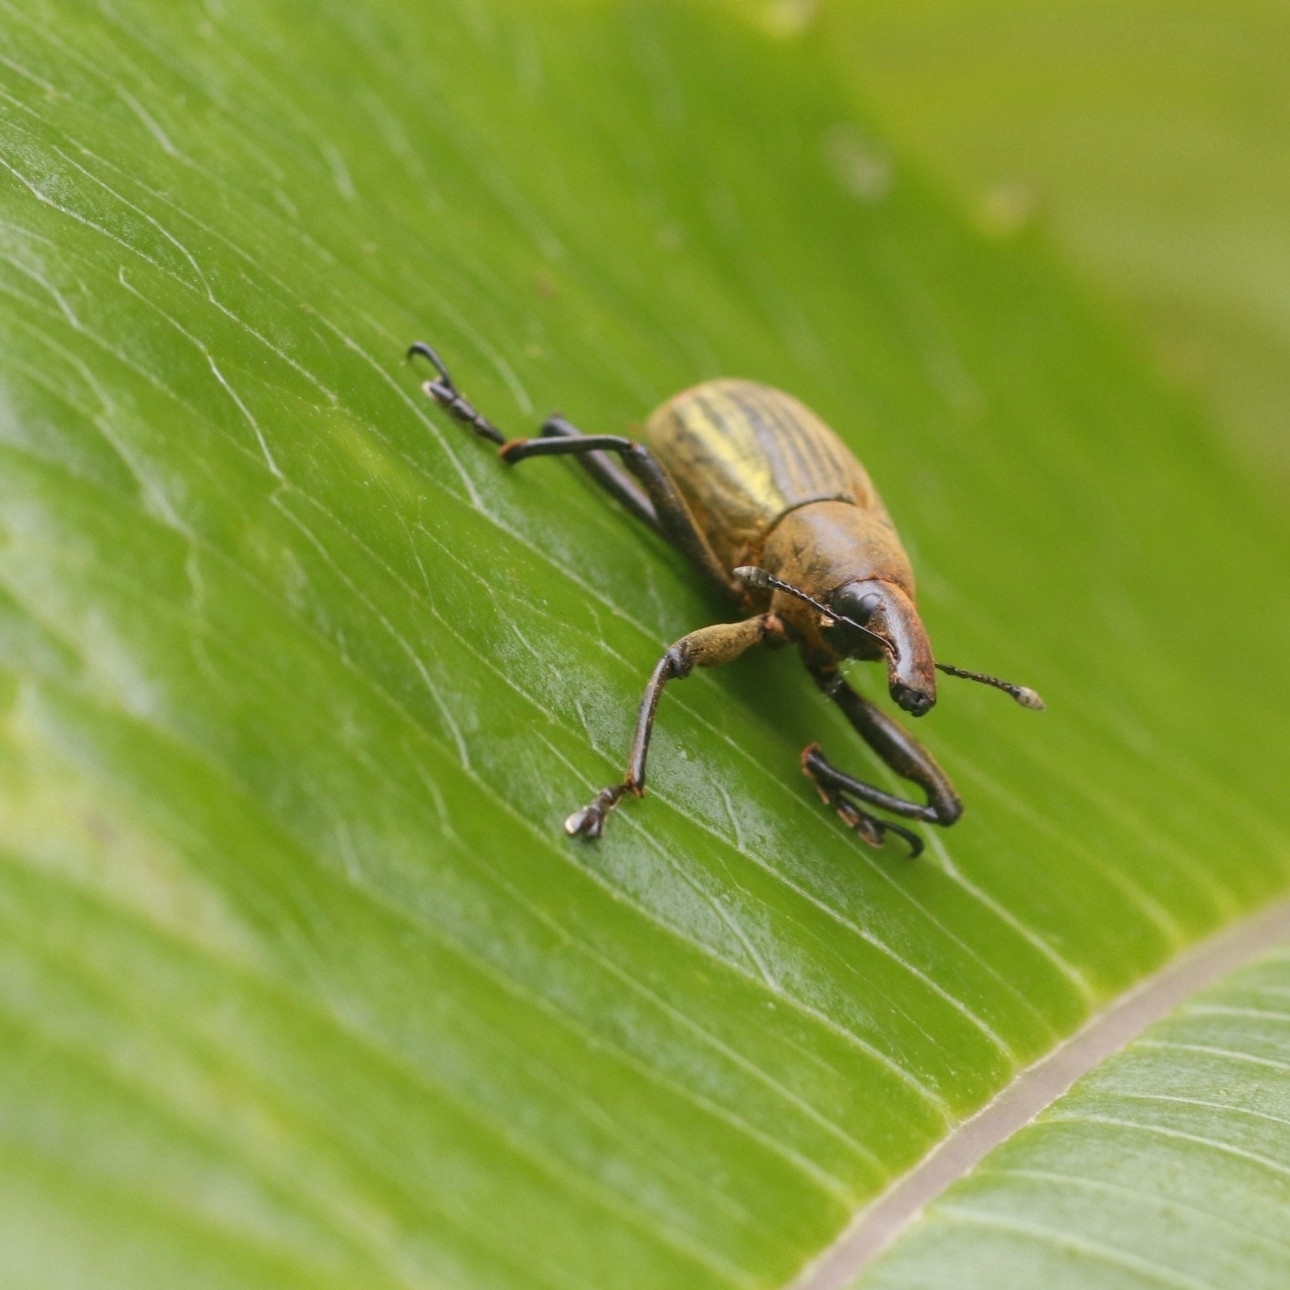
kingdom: Animalia
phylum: Arthropoda
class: Insecta
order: Coleoptera
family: Curculionidae
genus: Lixus
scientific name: Lixus apterus
